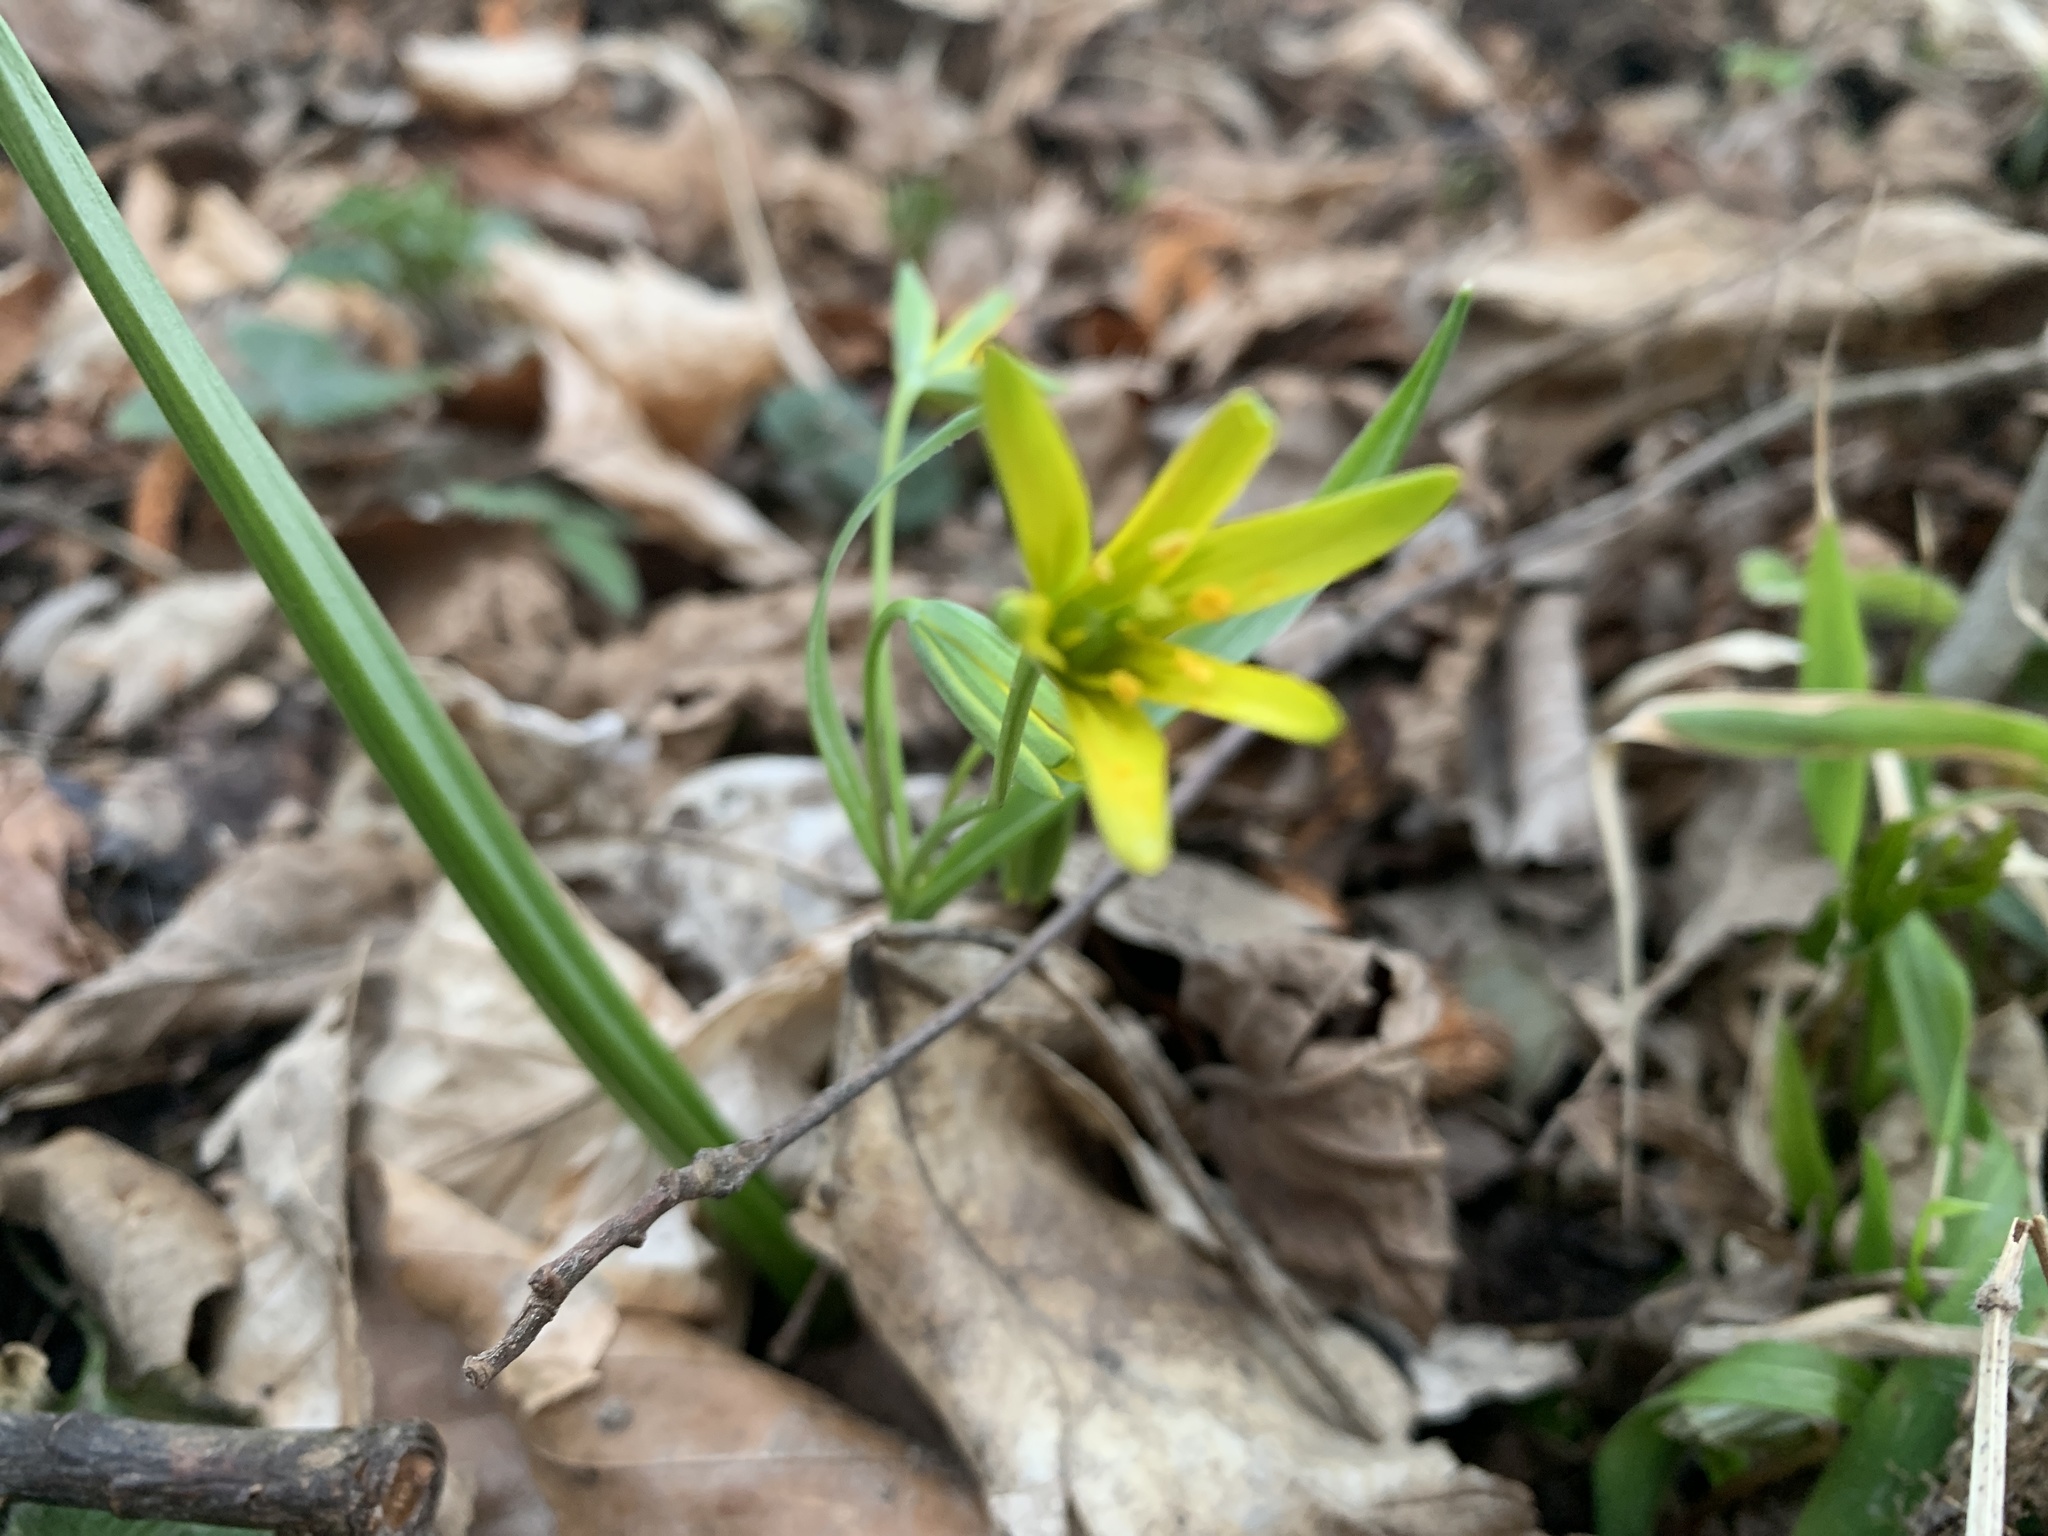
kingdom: Plantae
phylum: Tracheophyta
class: Liliopsida
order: Liliales
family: Liliaceae
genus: Gagea
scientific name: Gagea lutea
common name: Yellow star-of-bethlehem
